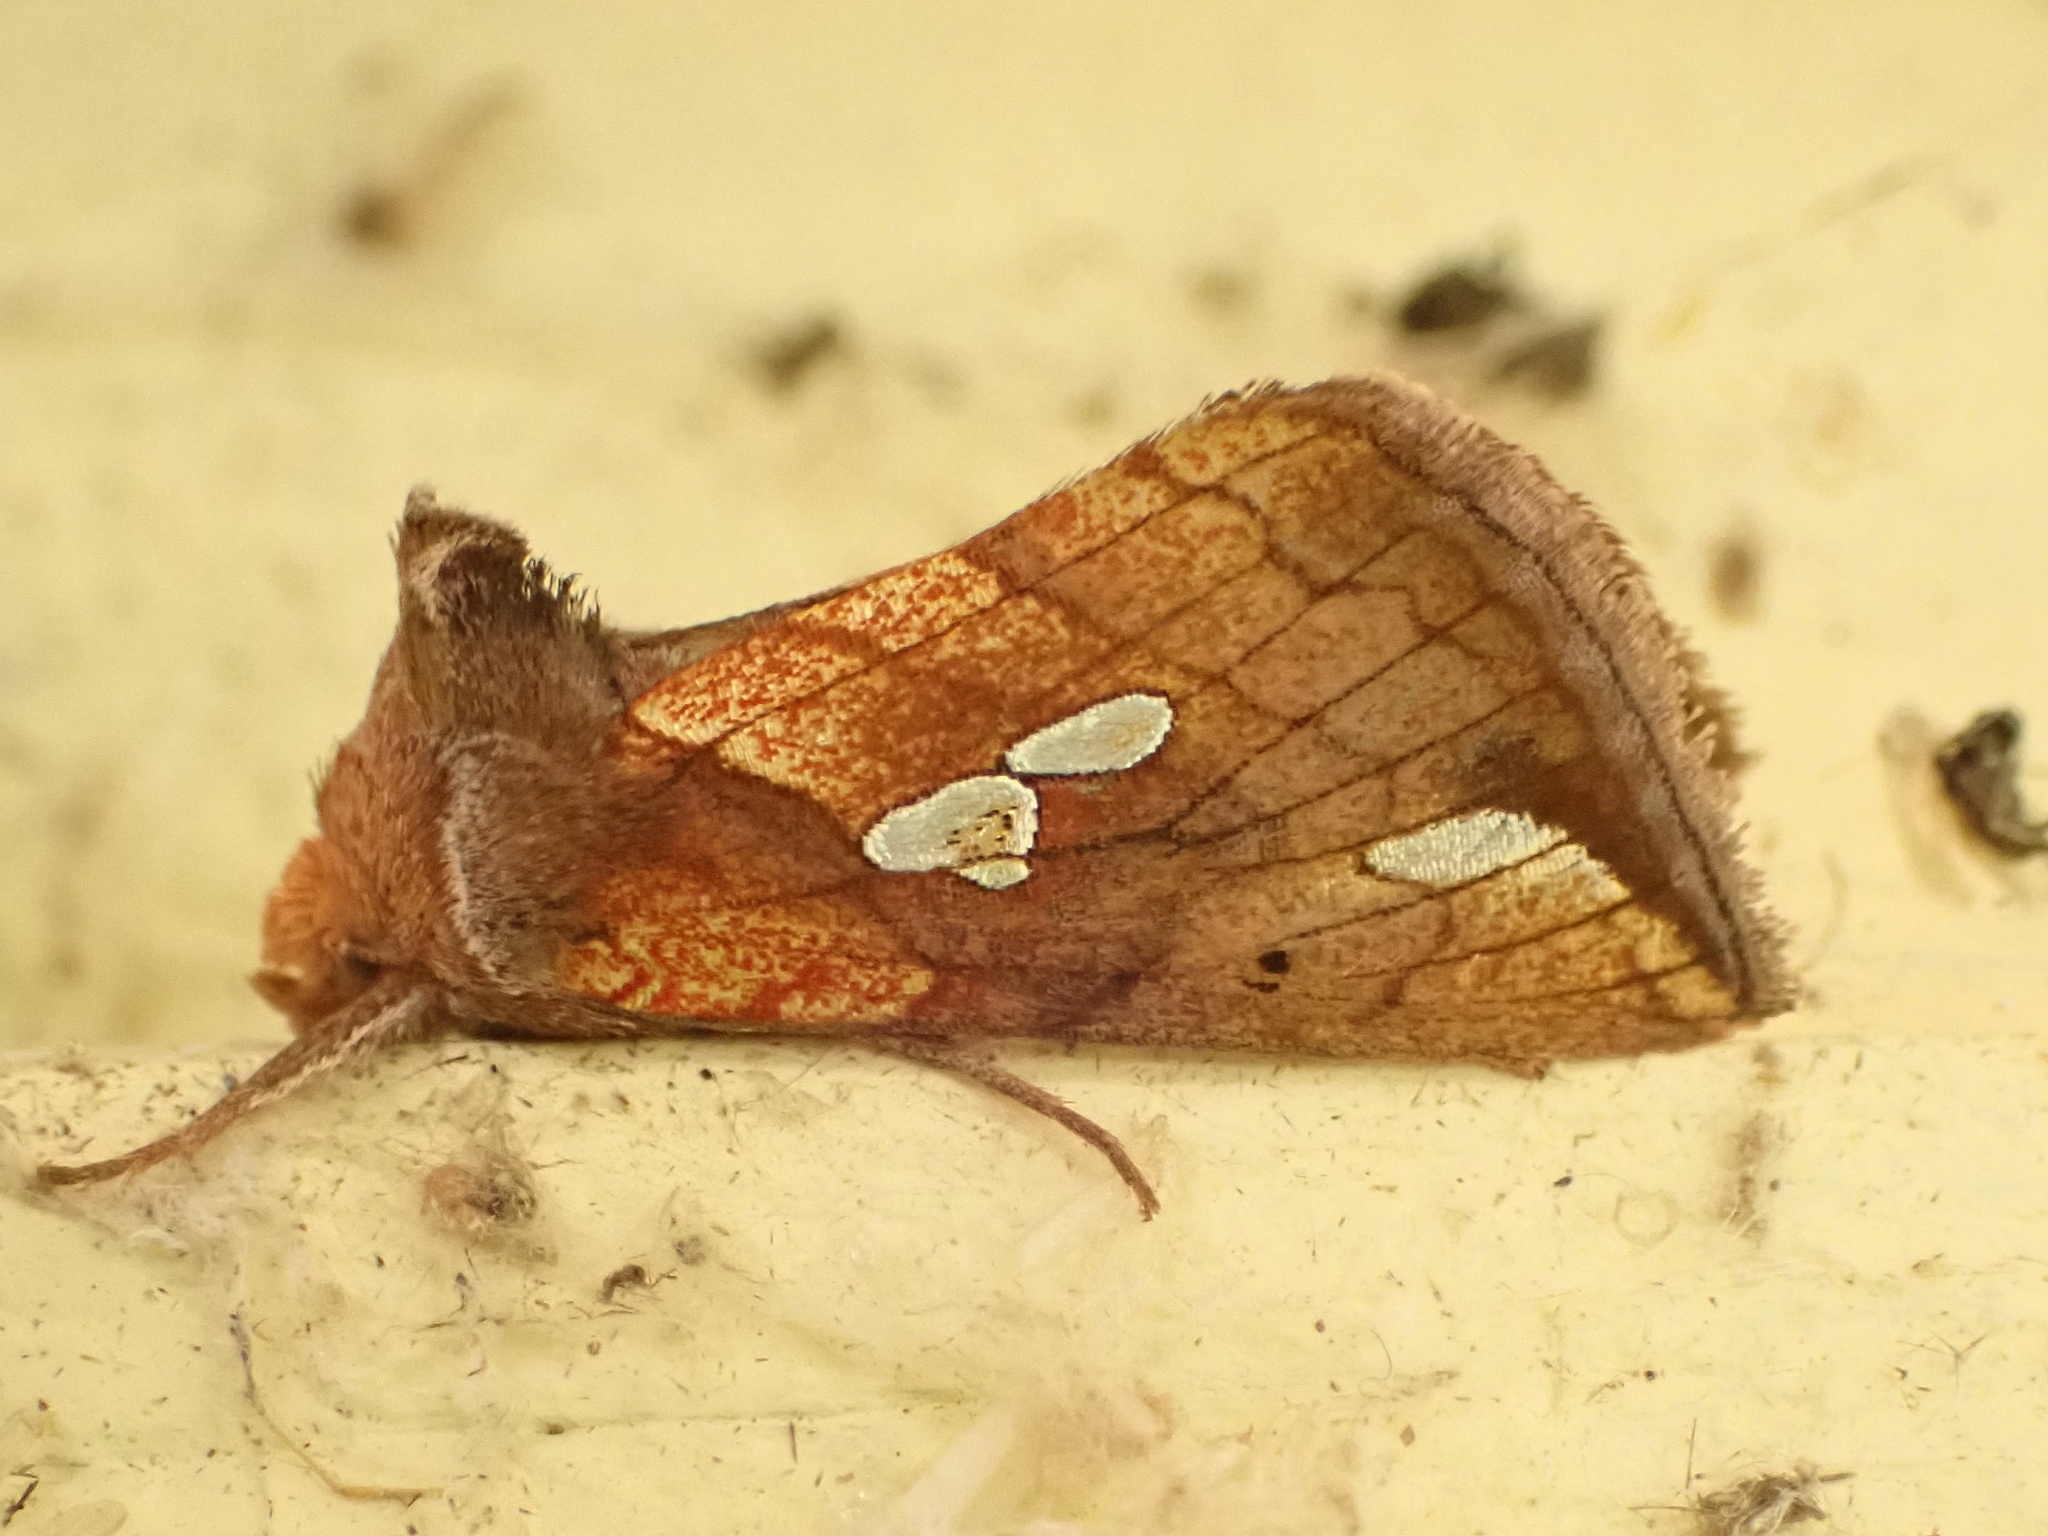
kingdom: Animalia
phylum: Arthropoda
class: Insecta
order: Lepidoptera
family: Noctuidae
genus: Plusia
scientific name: Plusia putnami
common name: Lempke's gold spot
